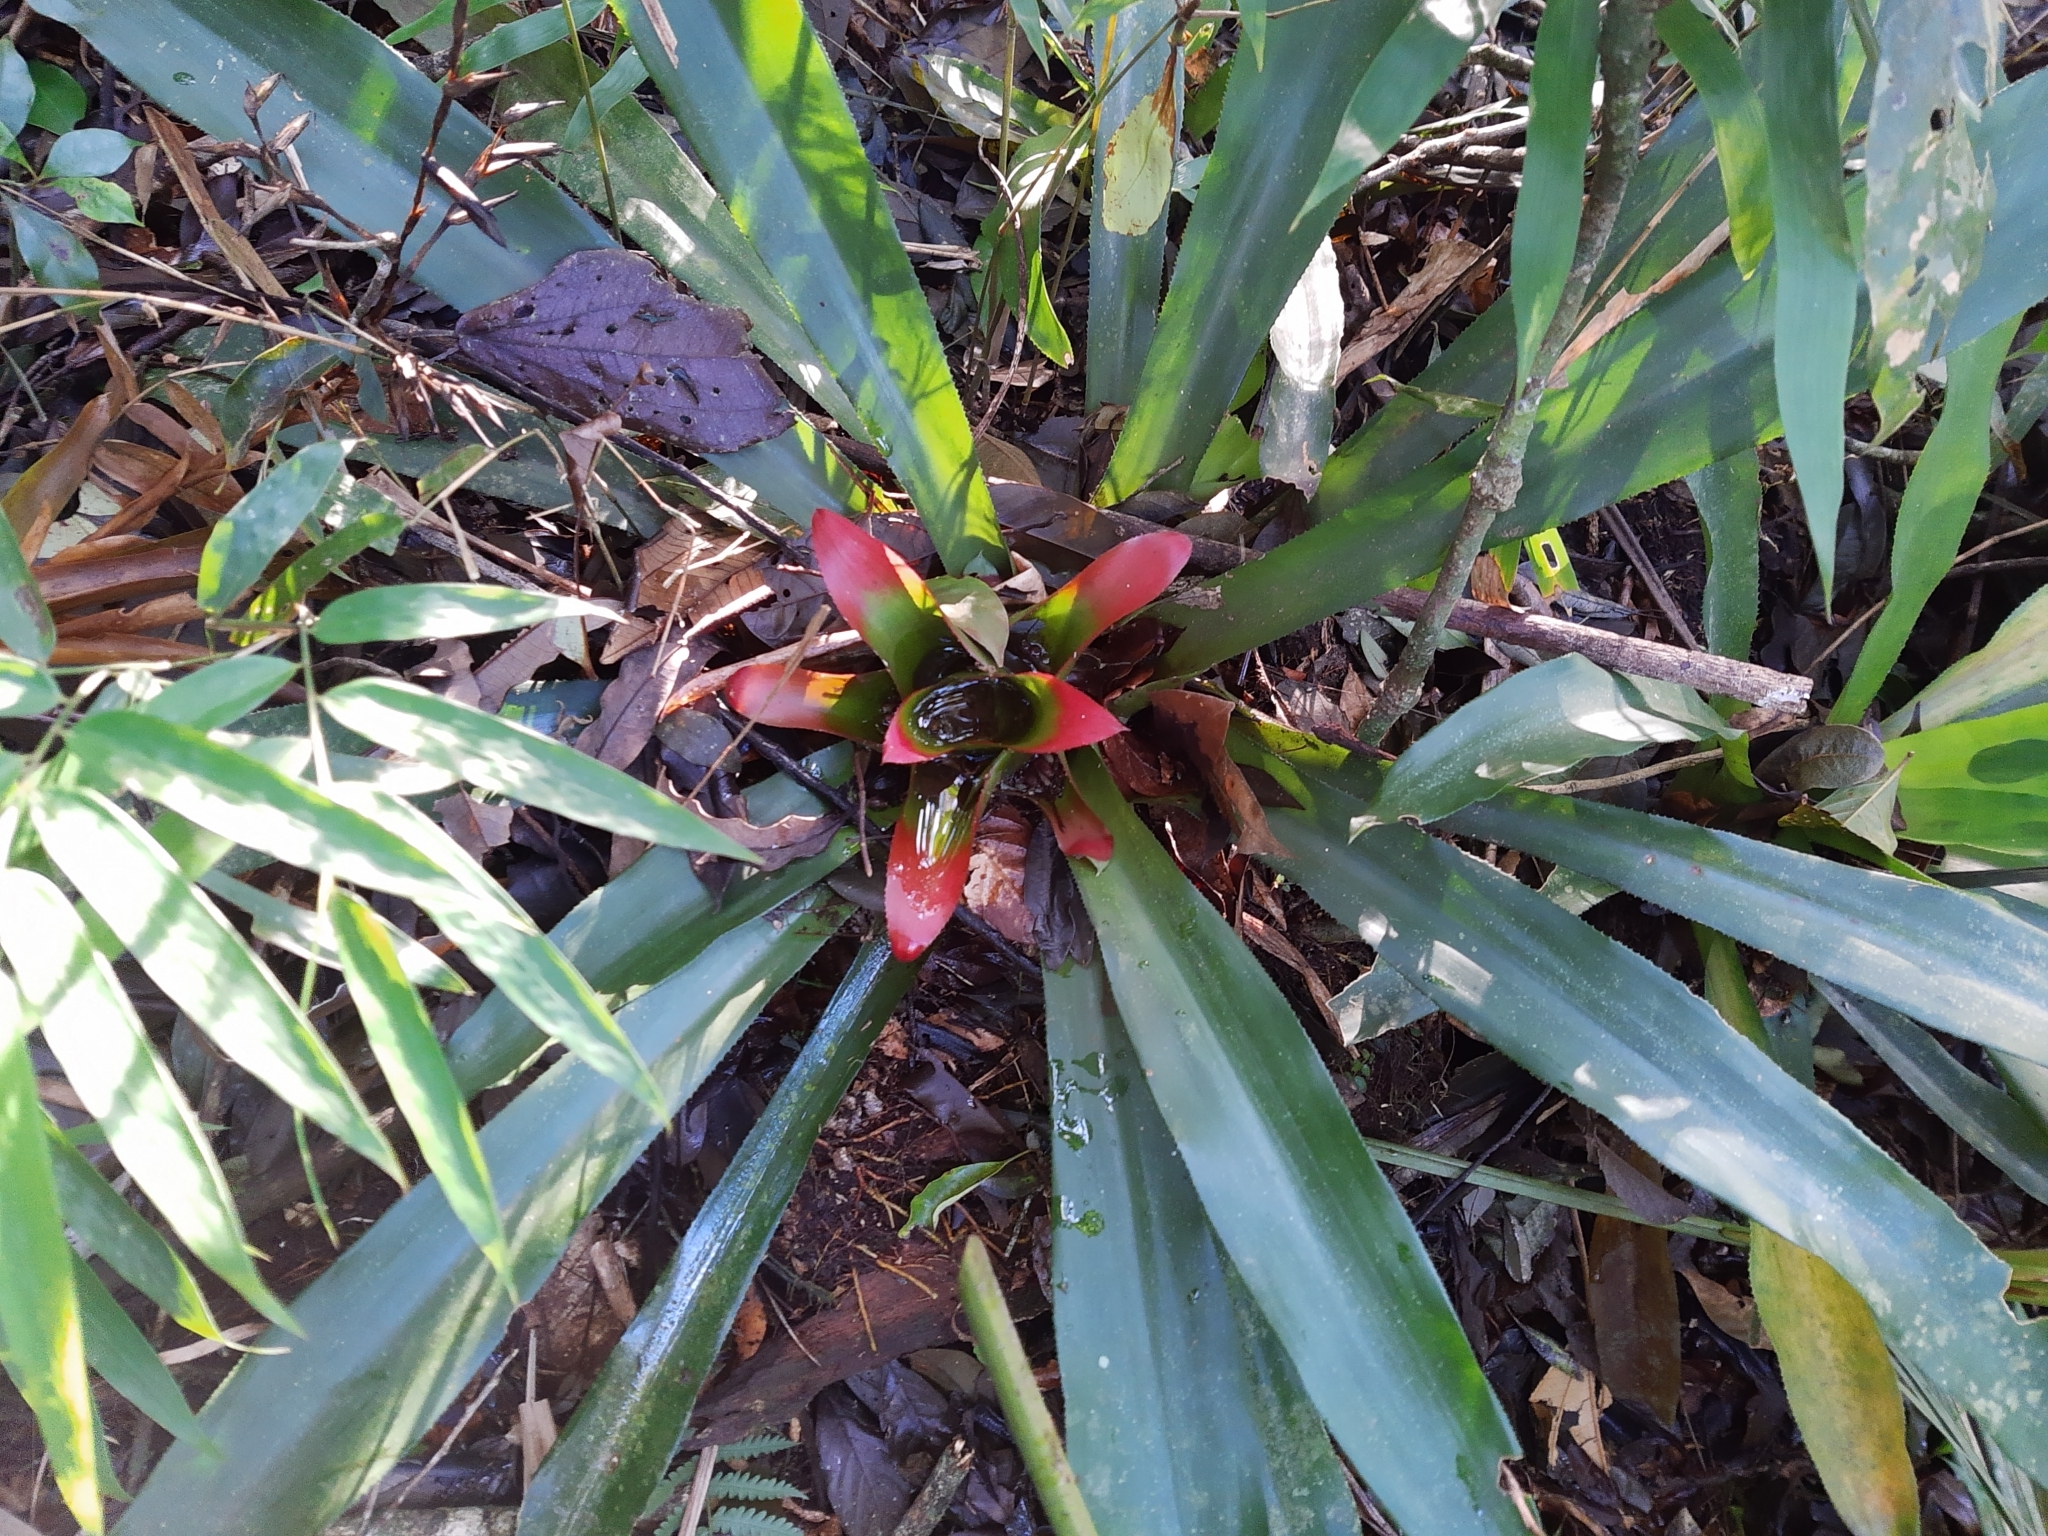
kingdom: Plantae
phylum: Tracheophyta
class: Liliopsida
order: Poales
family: Bromeliaceae
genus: Nidularium
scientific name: Nidularium innocentii
